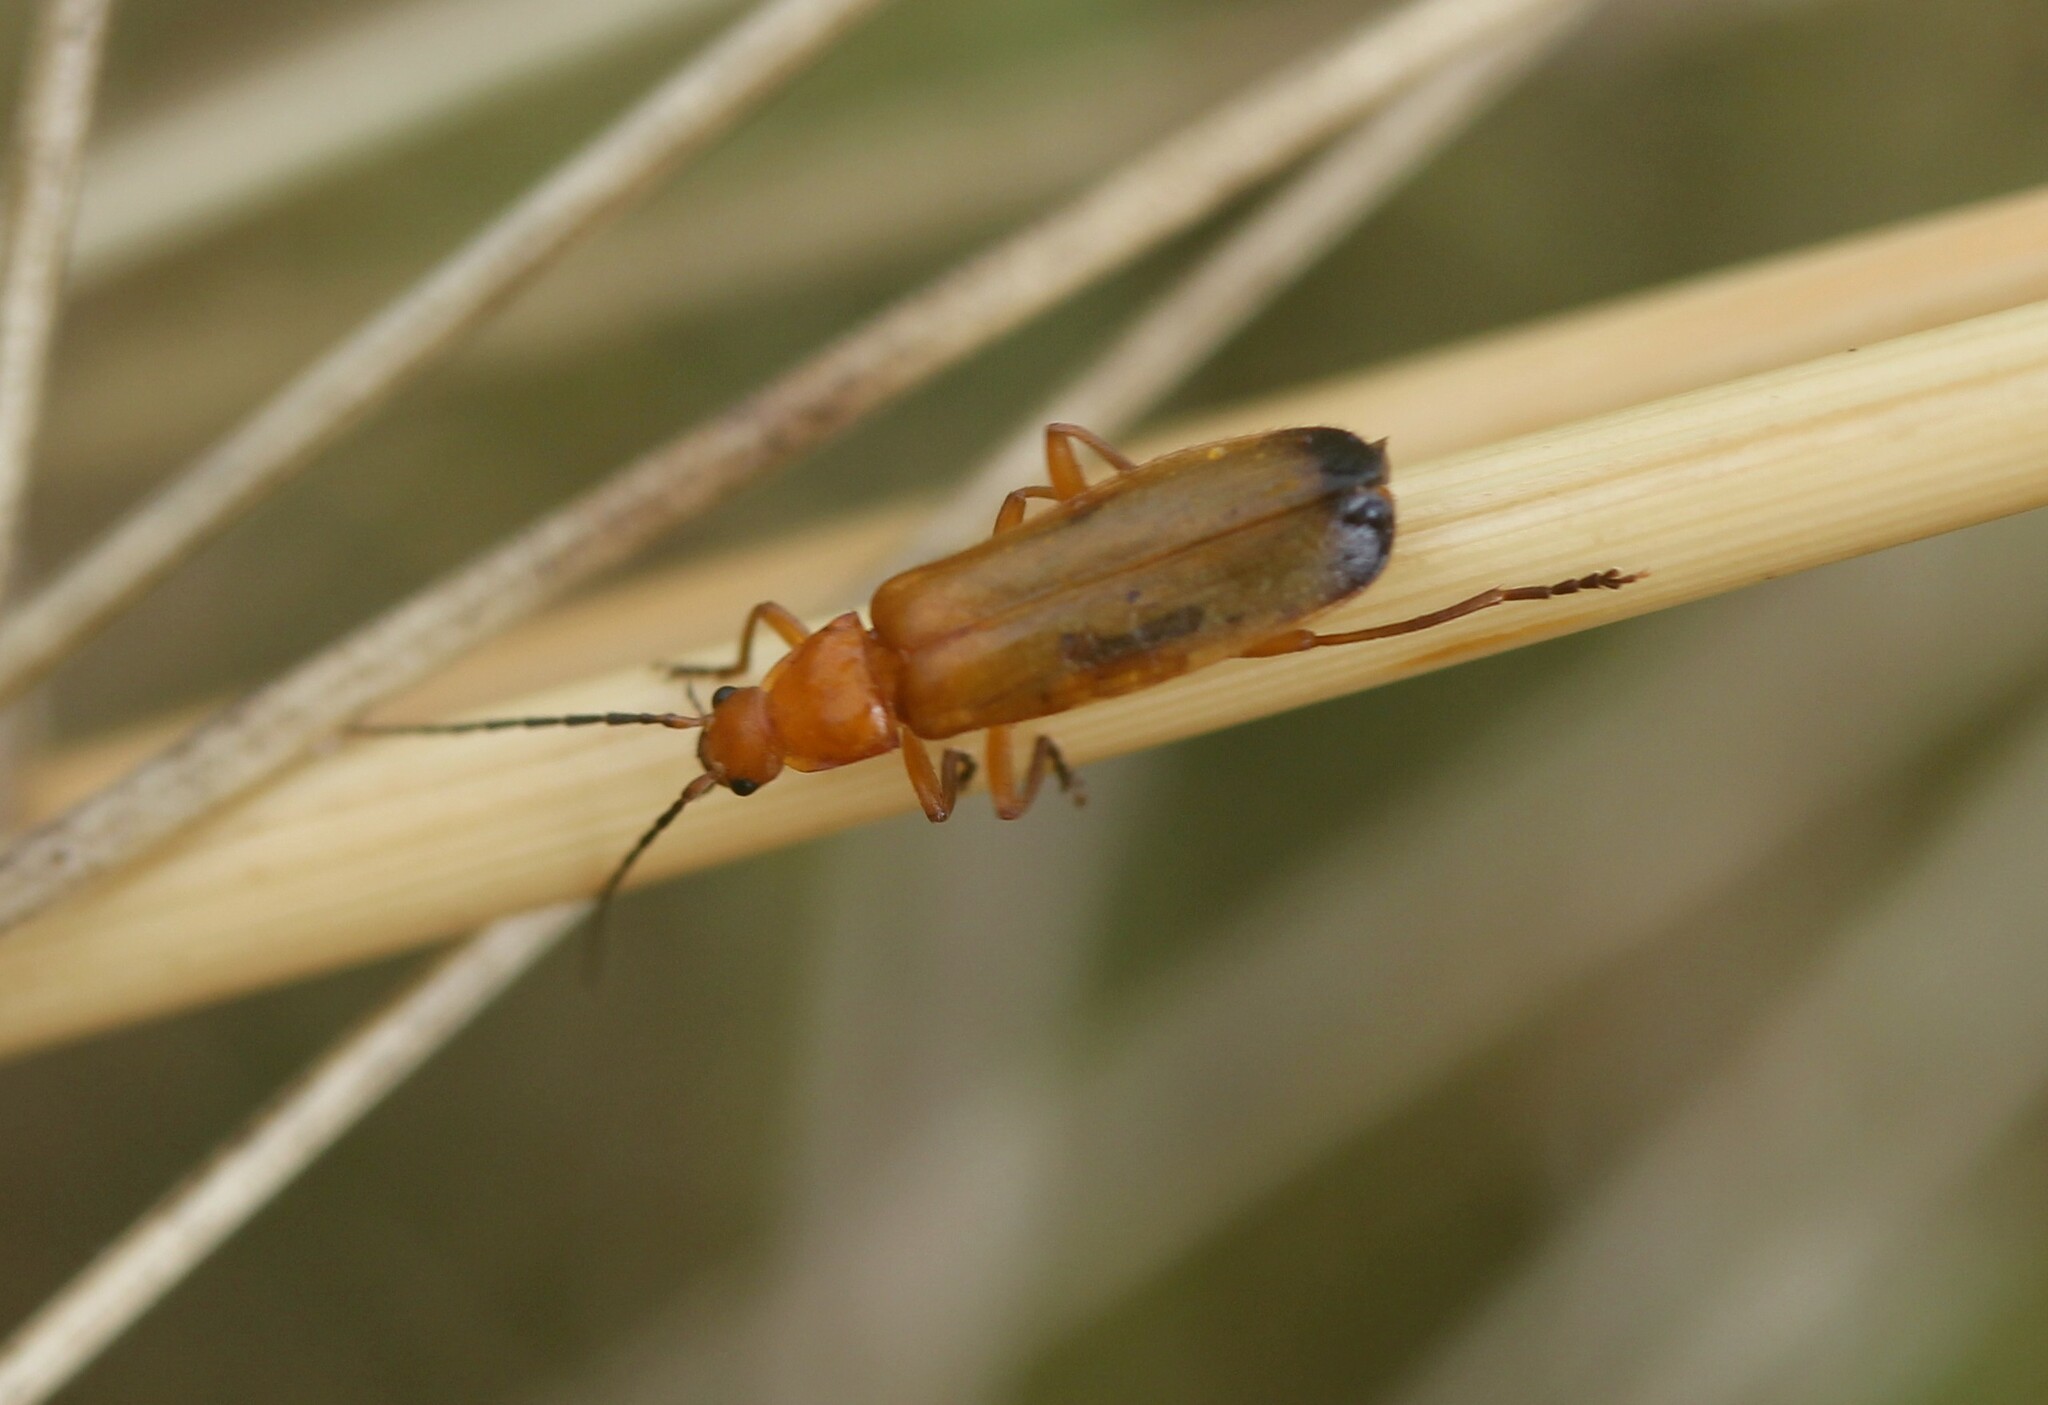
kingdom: Animalia
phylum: Arthropoda
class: Insecta
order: Coleoptera
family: Cantharidae
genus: Rhagonycha
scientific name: Rhagonycha fulva
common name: Common red soldier beetle
